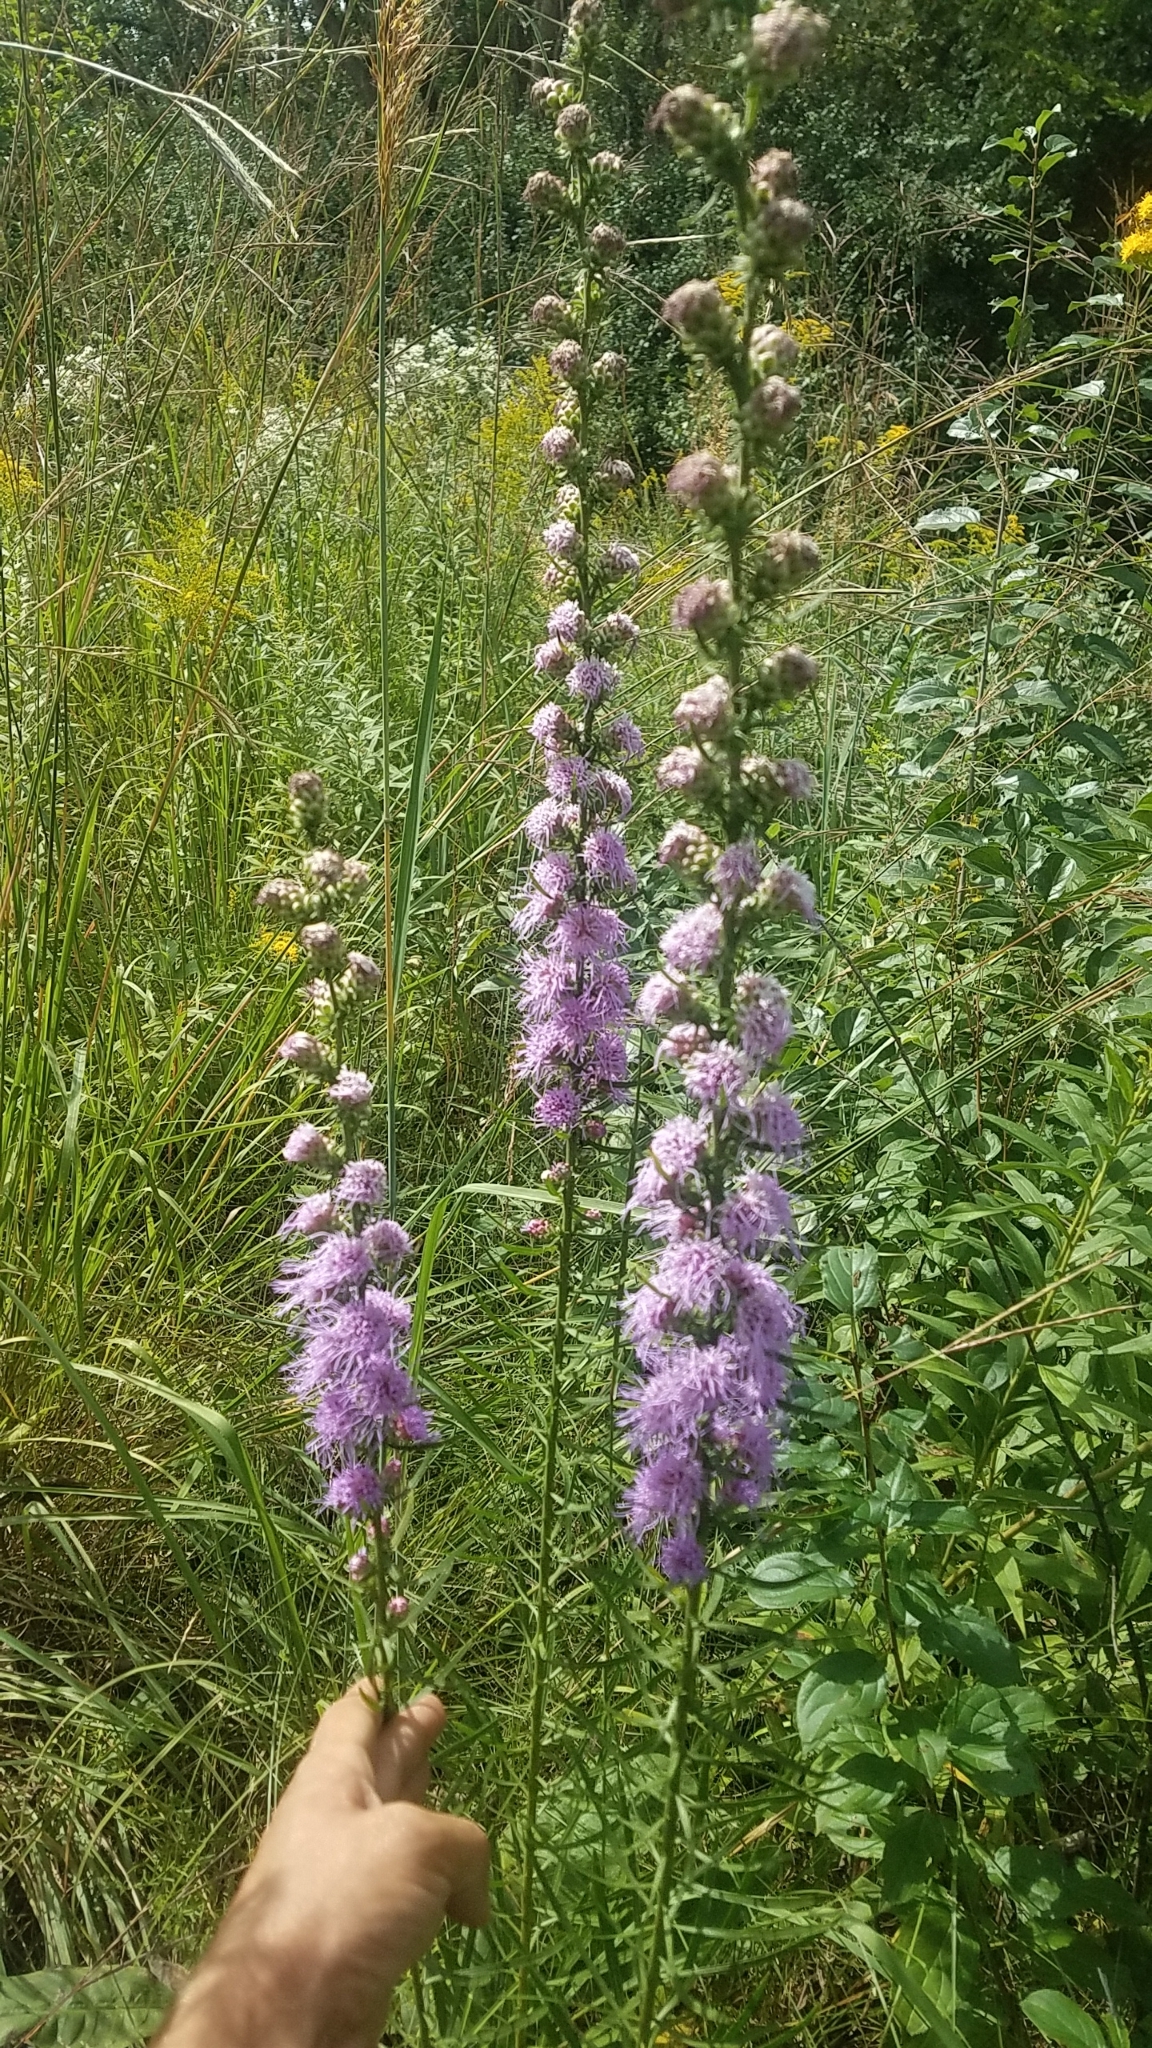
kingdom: Plantae
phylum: Tracheophyta
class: Magnoliopsida
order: Asterales
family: Asteraceae
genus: Liatris
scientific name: Liatris aspera
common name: Lacerate blazing-star
